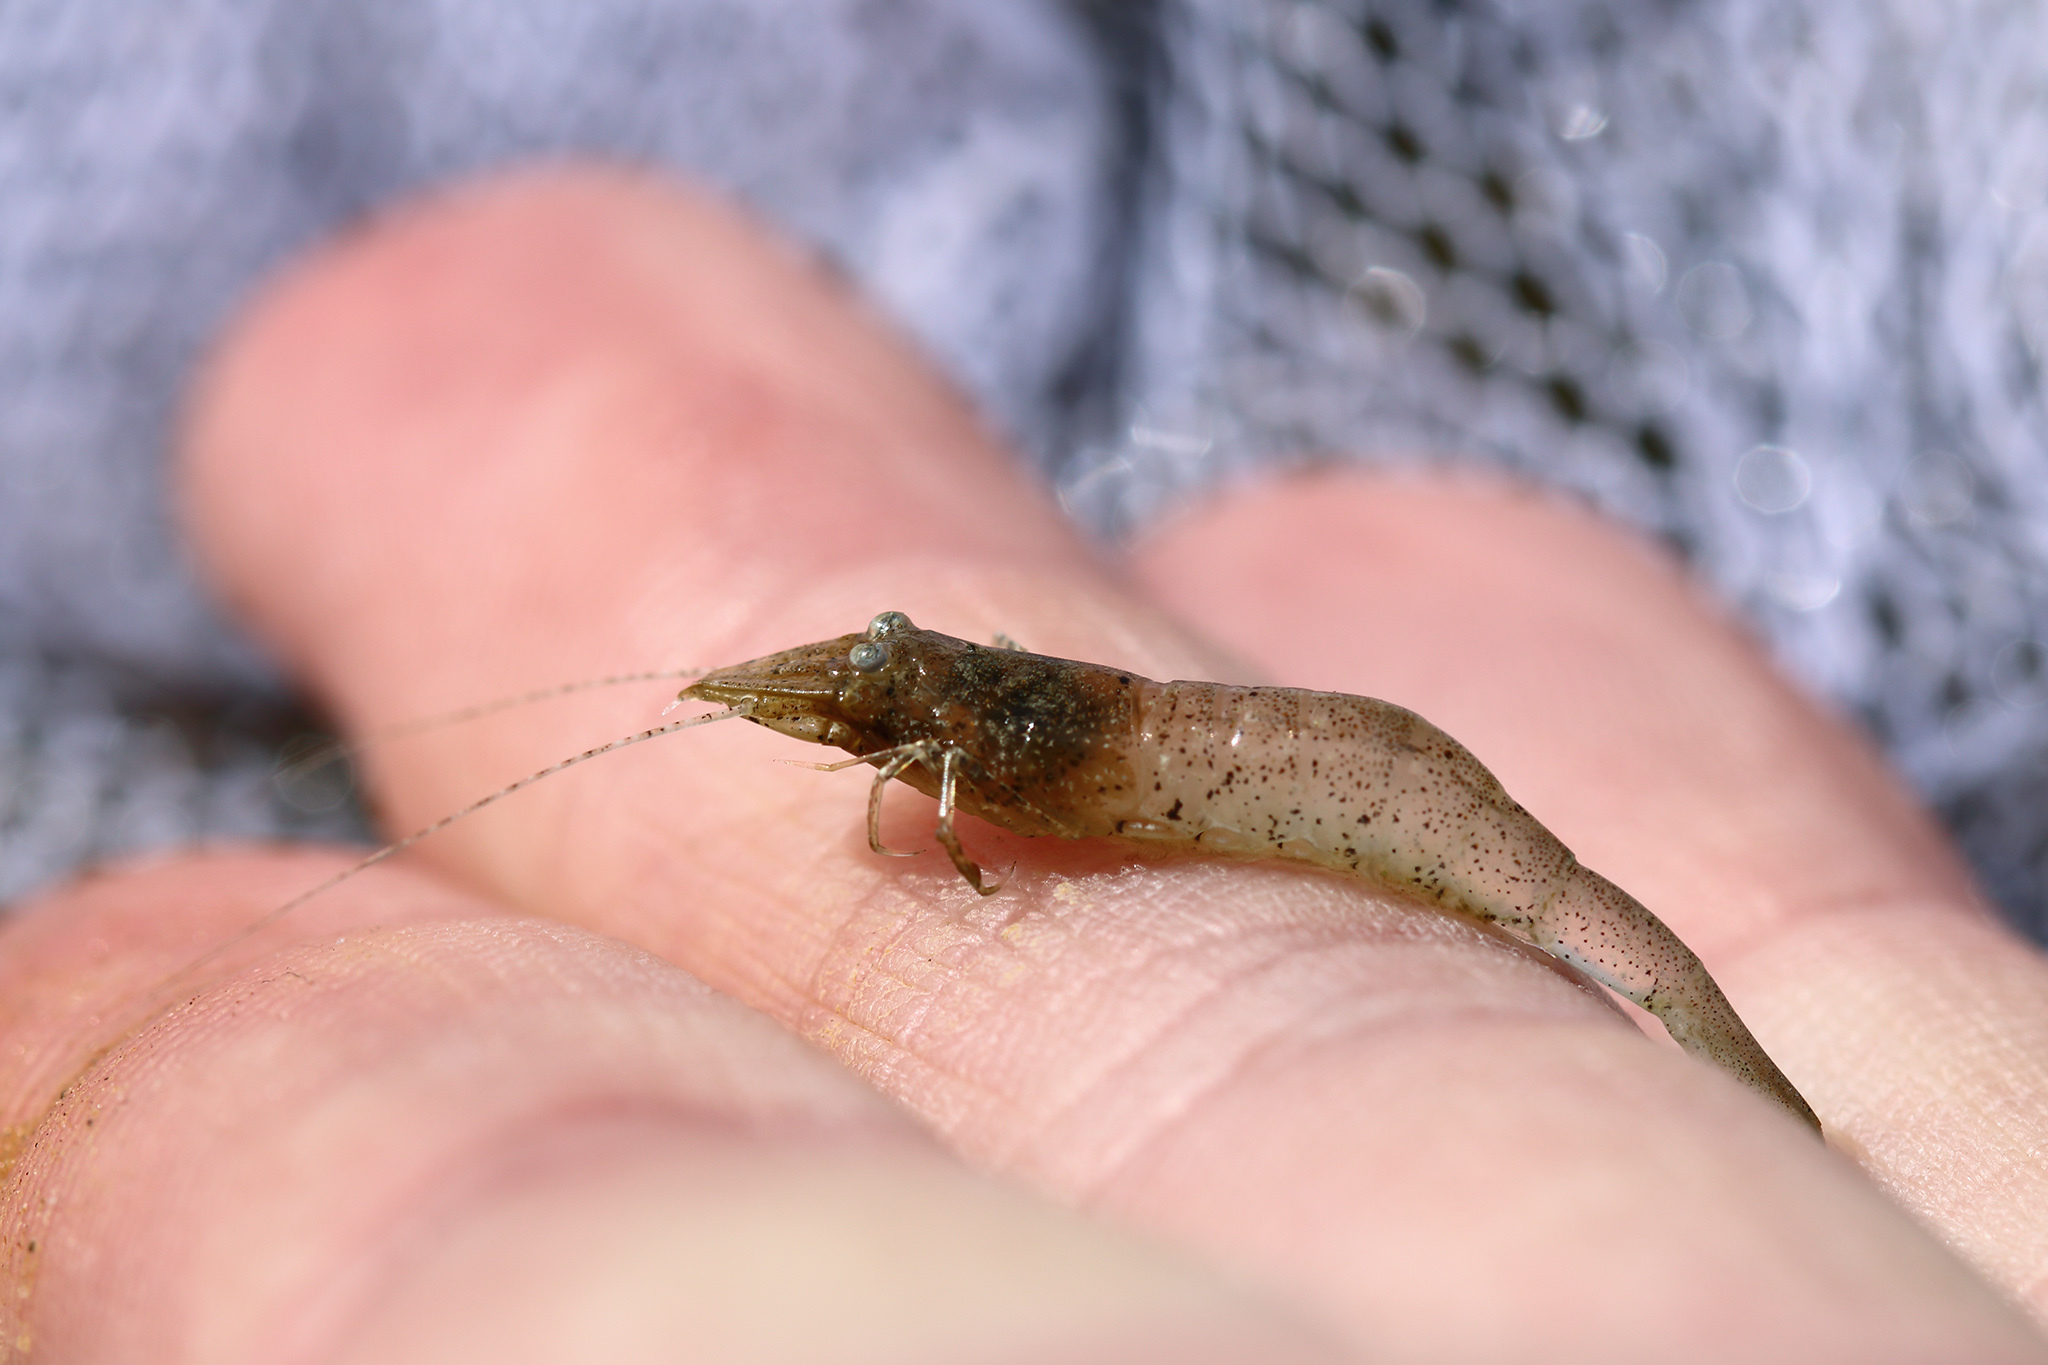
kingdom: Animalia
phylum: Arthropoda
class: Malacostraca
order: Decapoda
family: Crangonidae
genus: Crangon
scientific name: Crangon crangon
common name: Brown shrimp
